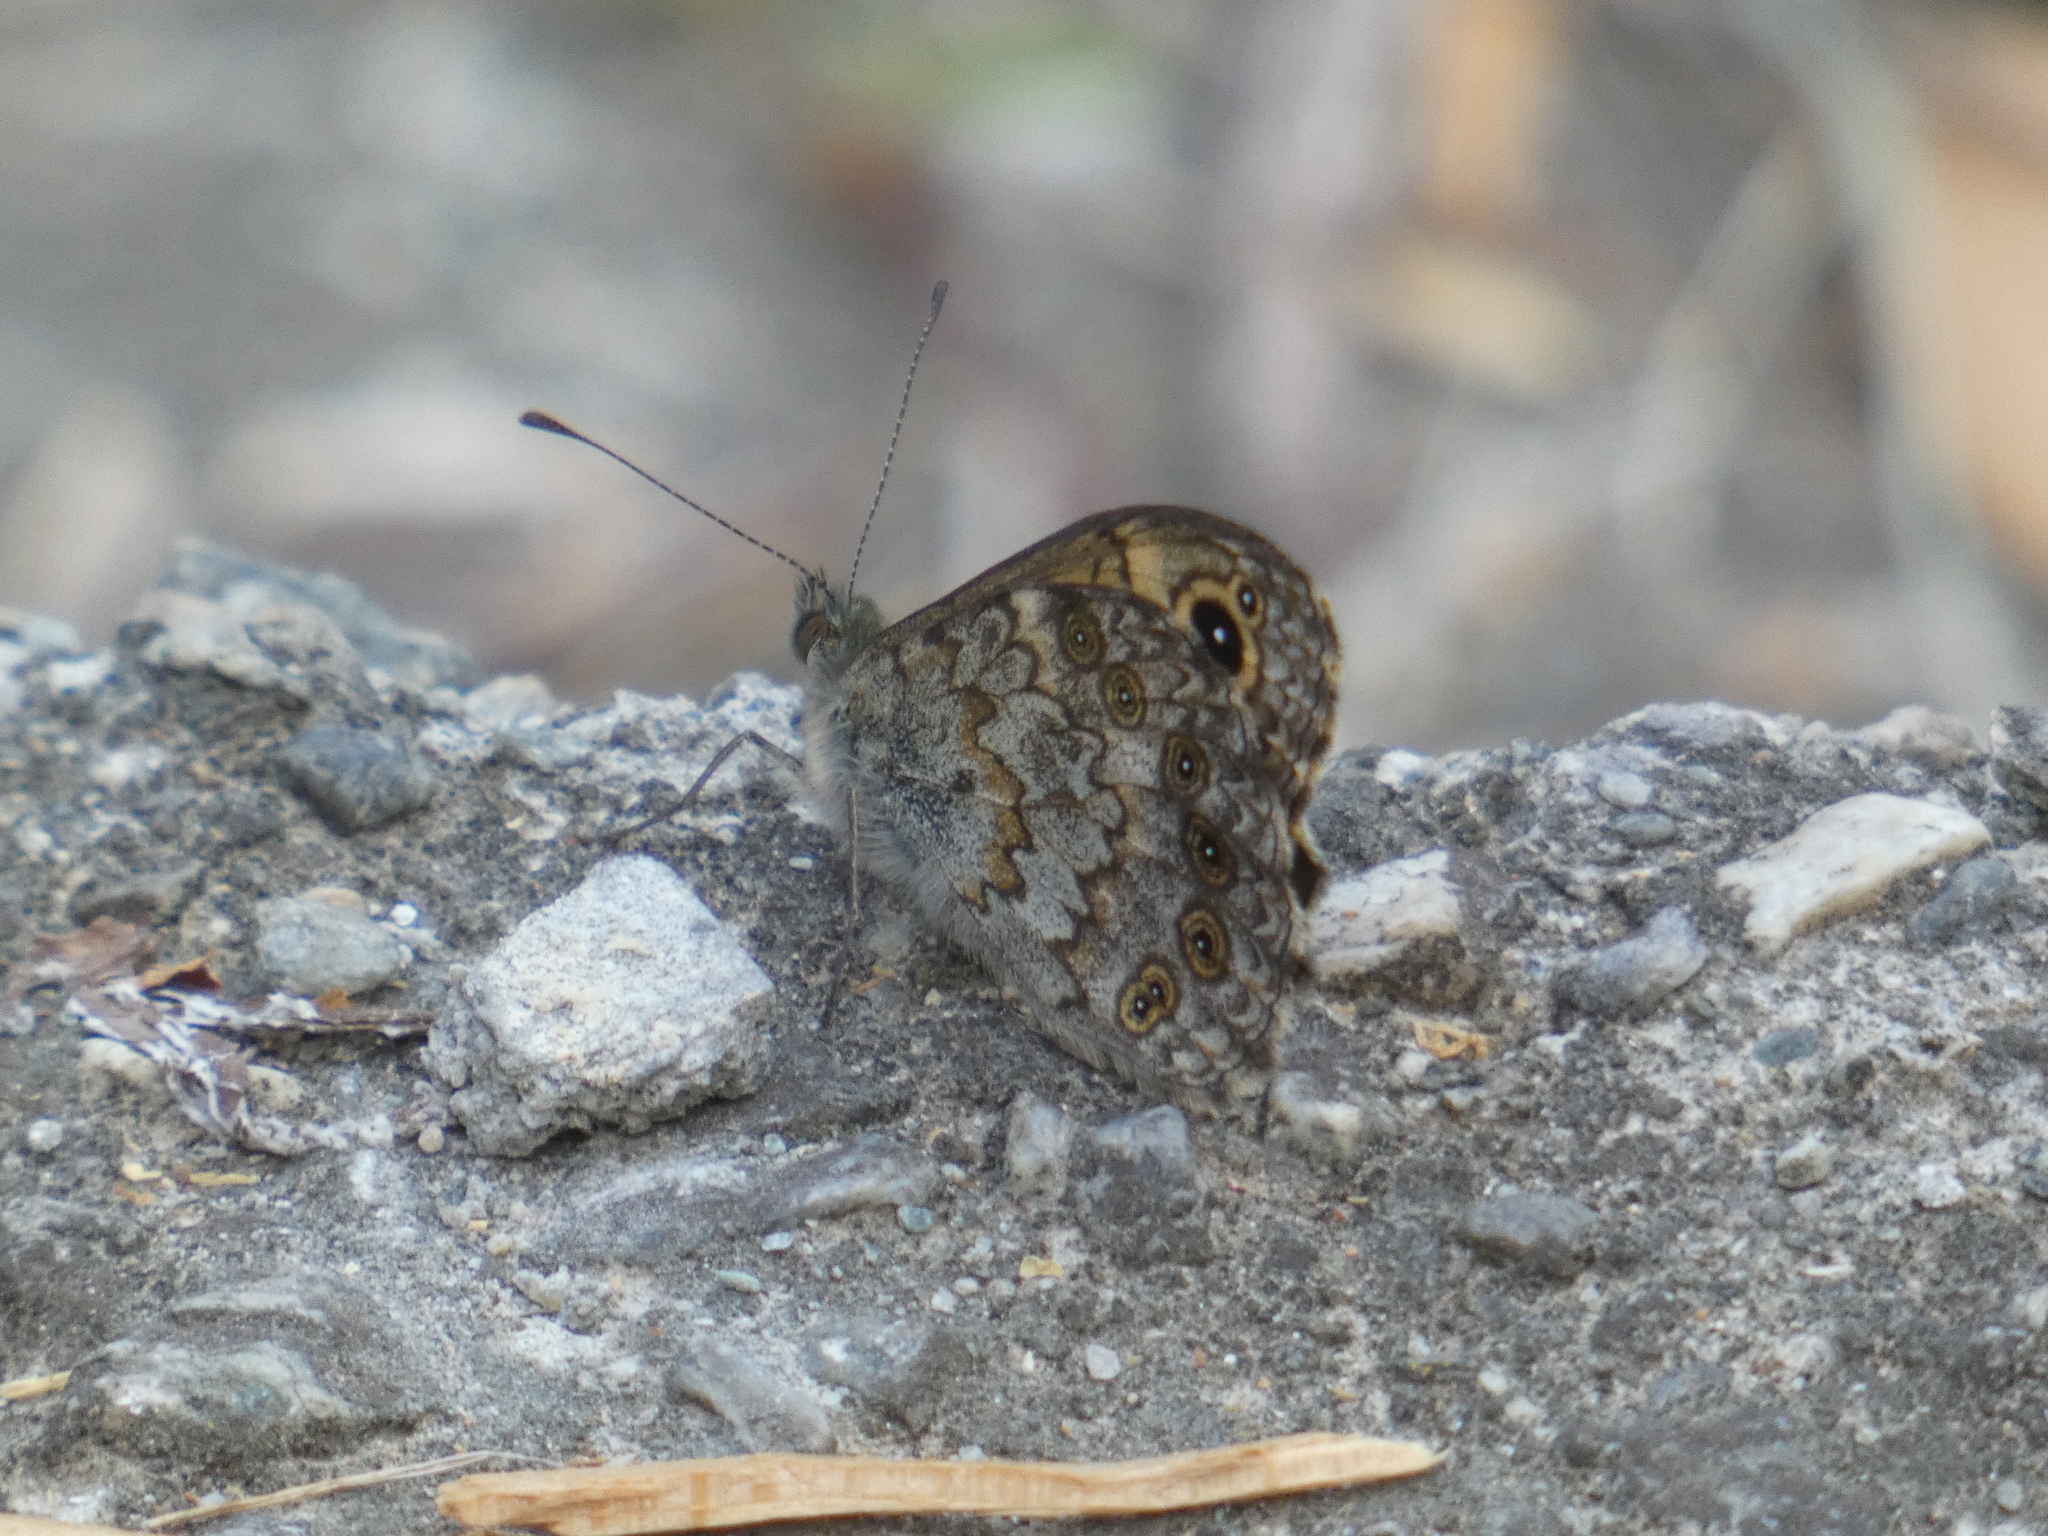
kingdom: Animalia
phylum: Arthropoda
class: Insecta
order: Lepidoptera
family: Nymphalidae
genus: Pararge
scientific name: Pararge Lasiommata megera
